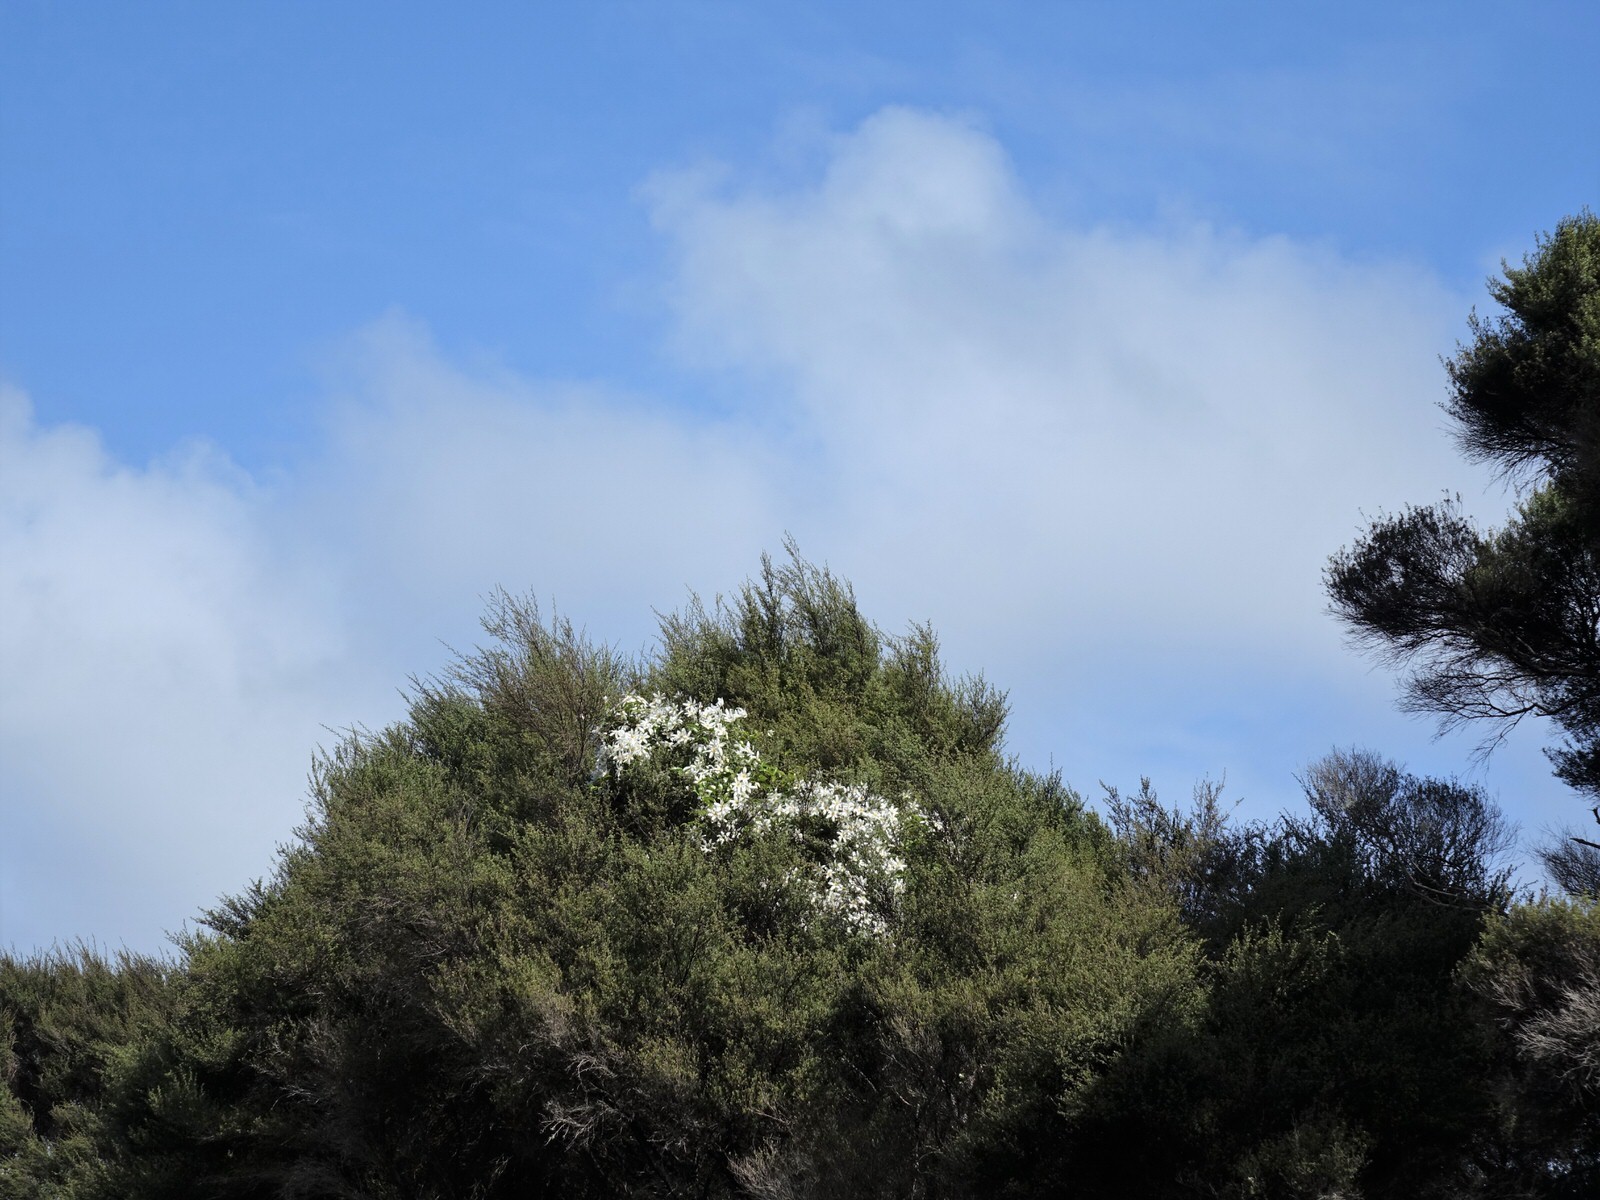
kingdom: Plantae
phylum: Tracheophyta
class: Magnoliopsida
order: Ranunculales
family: Ranunculaceae
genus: Clematis
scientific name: Clematis paniculata
